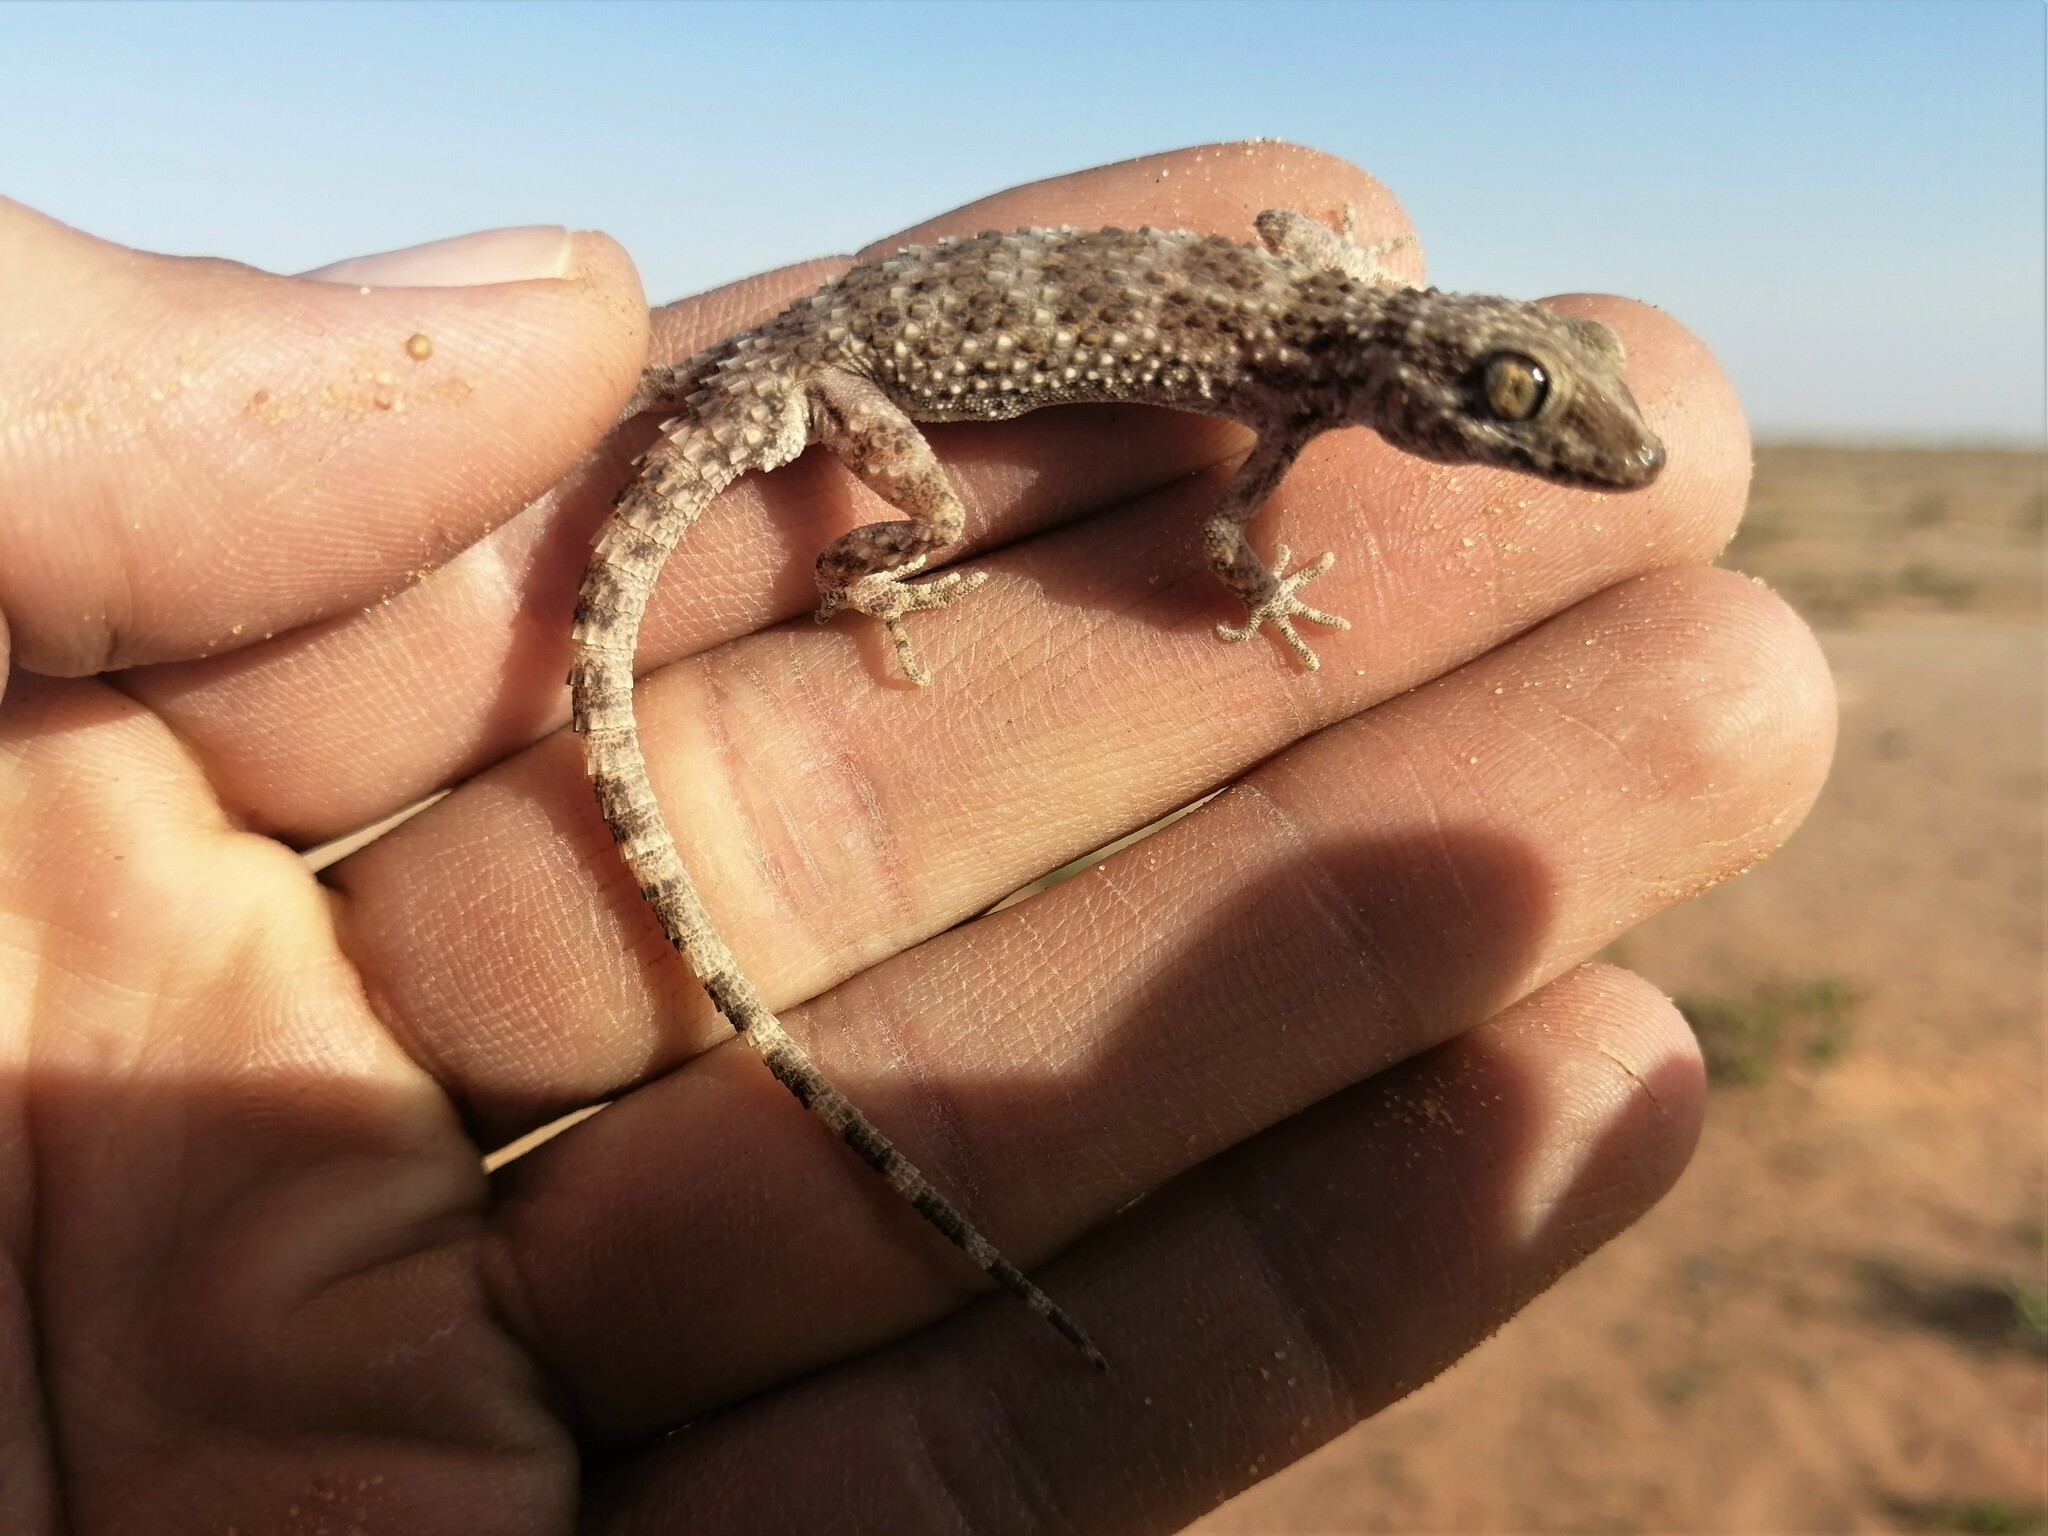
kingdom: Animalia
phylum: Chordata
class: Squamata
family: Gekkonidae
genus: Bunopus
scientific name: Bunopus tuberculatus
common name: Southern tuberculated gecko
